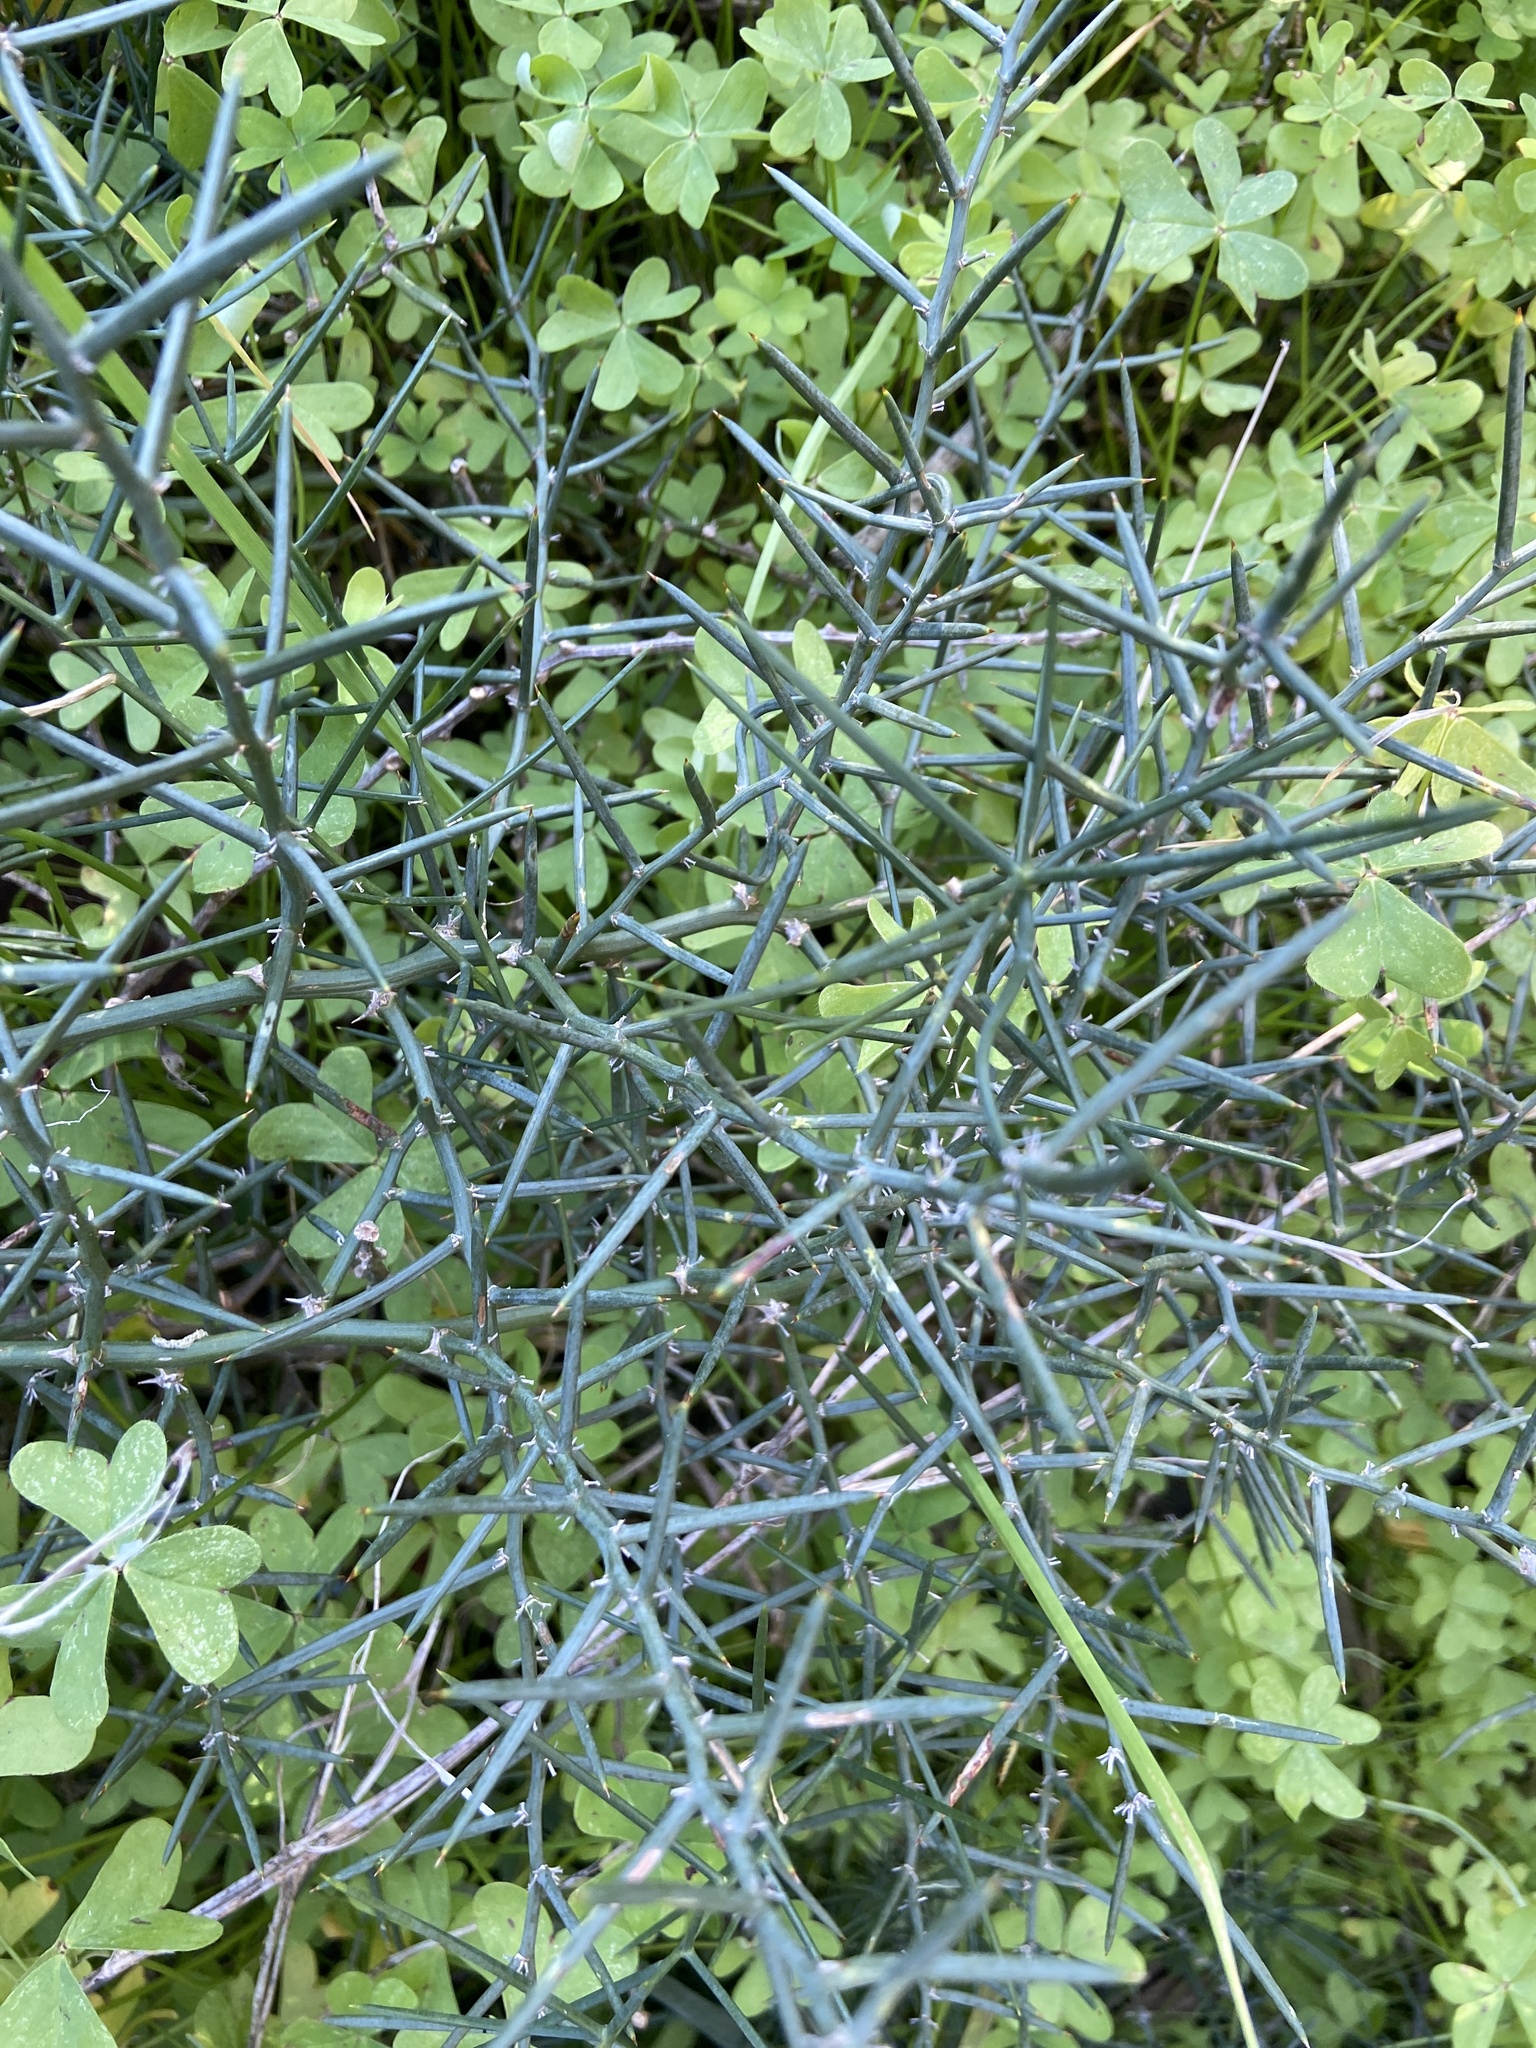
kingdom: Plantae
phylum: Tracheophyta
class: Liliopsida
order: Asparagales
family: Asparagaceae
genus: Asparagus
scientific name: Asparagus horridus
